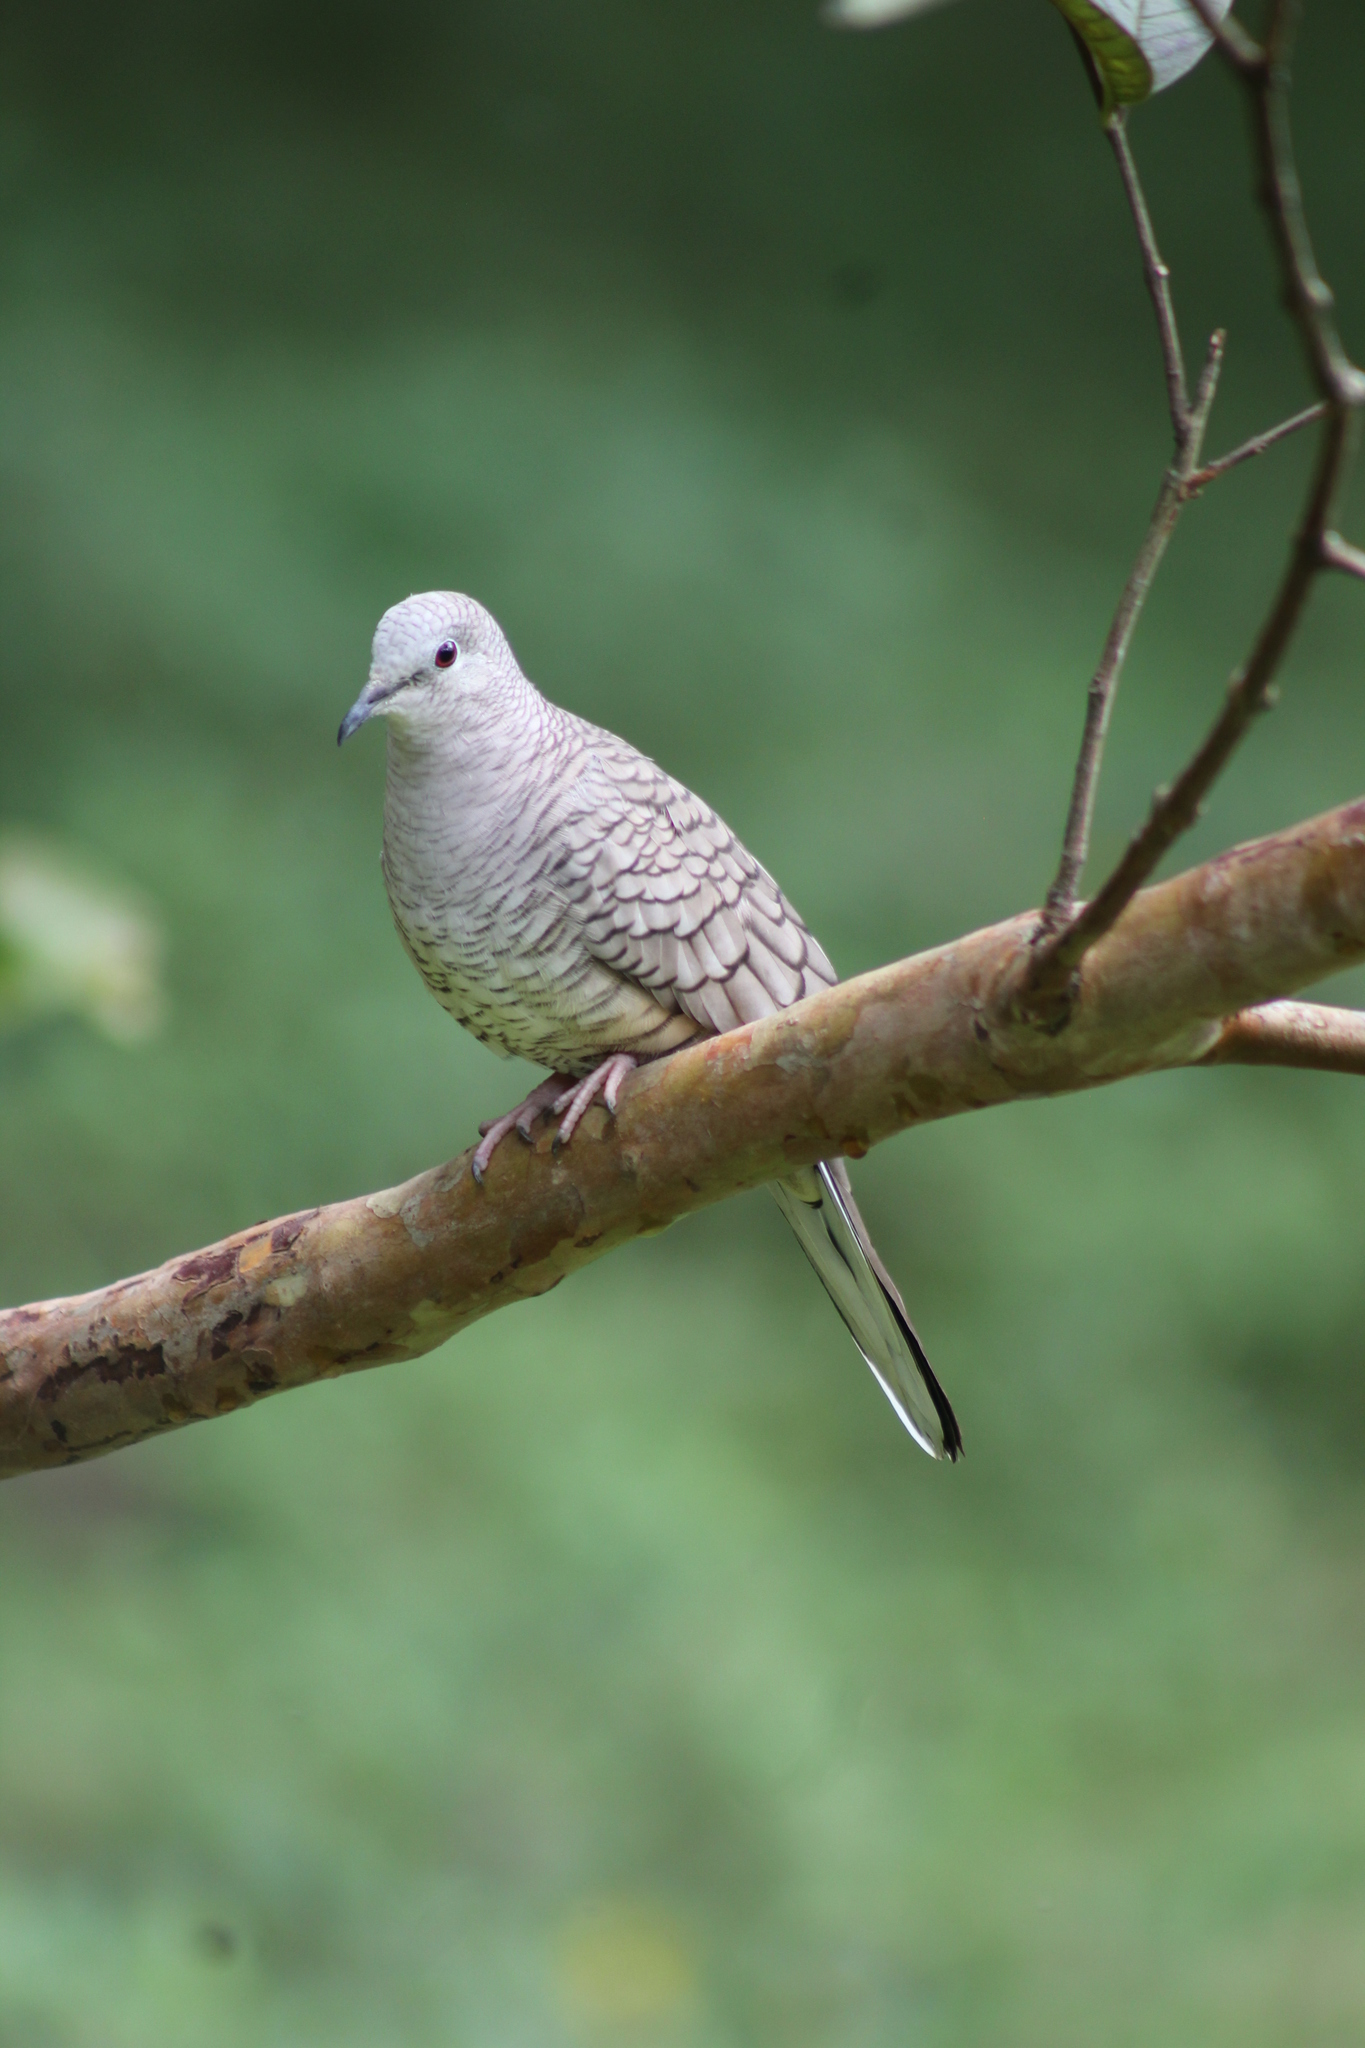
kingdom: Animalia
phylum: Chordata
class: Aves
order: Columbiformes
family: Columbidae
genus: Columbina
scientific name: Columbina inca
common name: Inca dove
